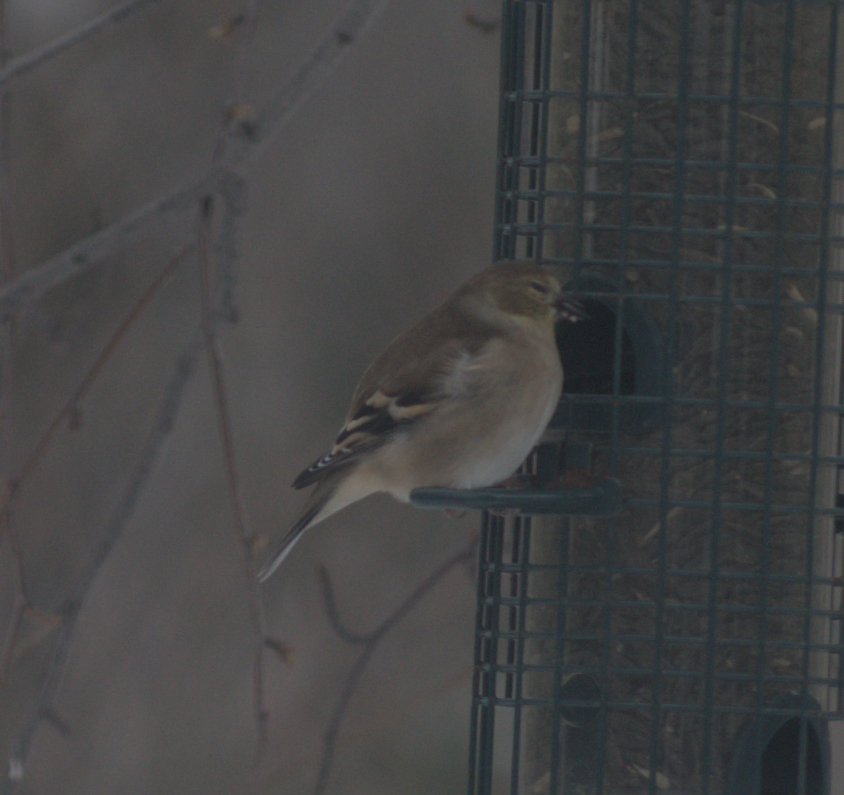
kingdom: Animalia
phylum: Chordata
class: Aves
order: Passeriformes
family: Fringillidae
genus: Spinus
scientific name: Spinus tristis
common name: American goldfinch
